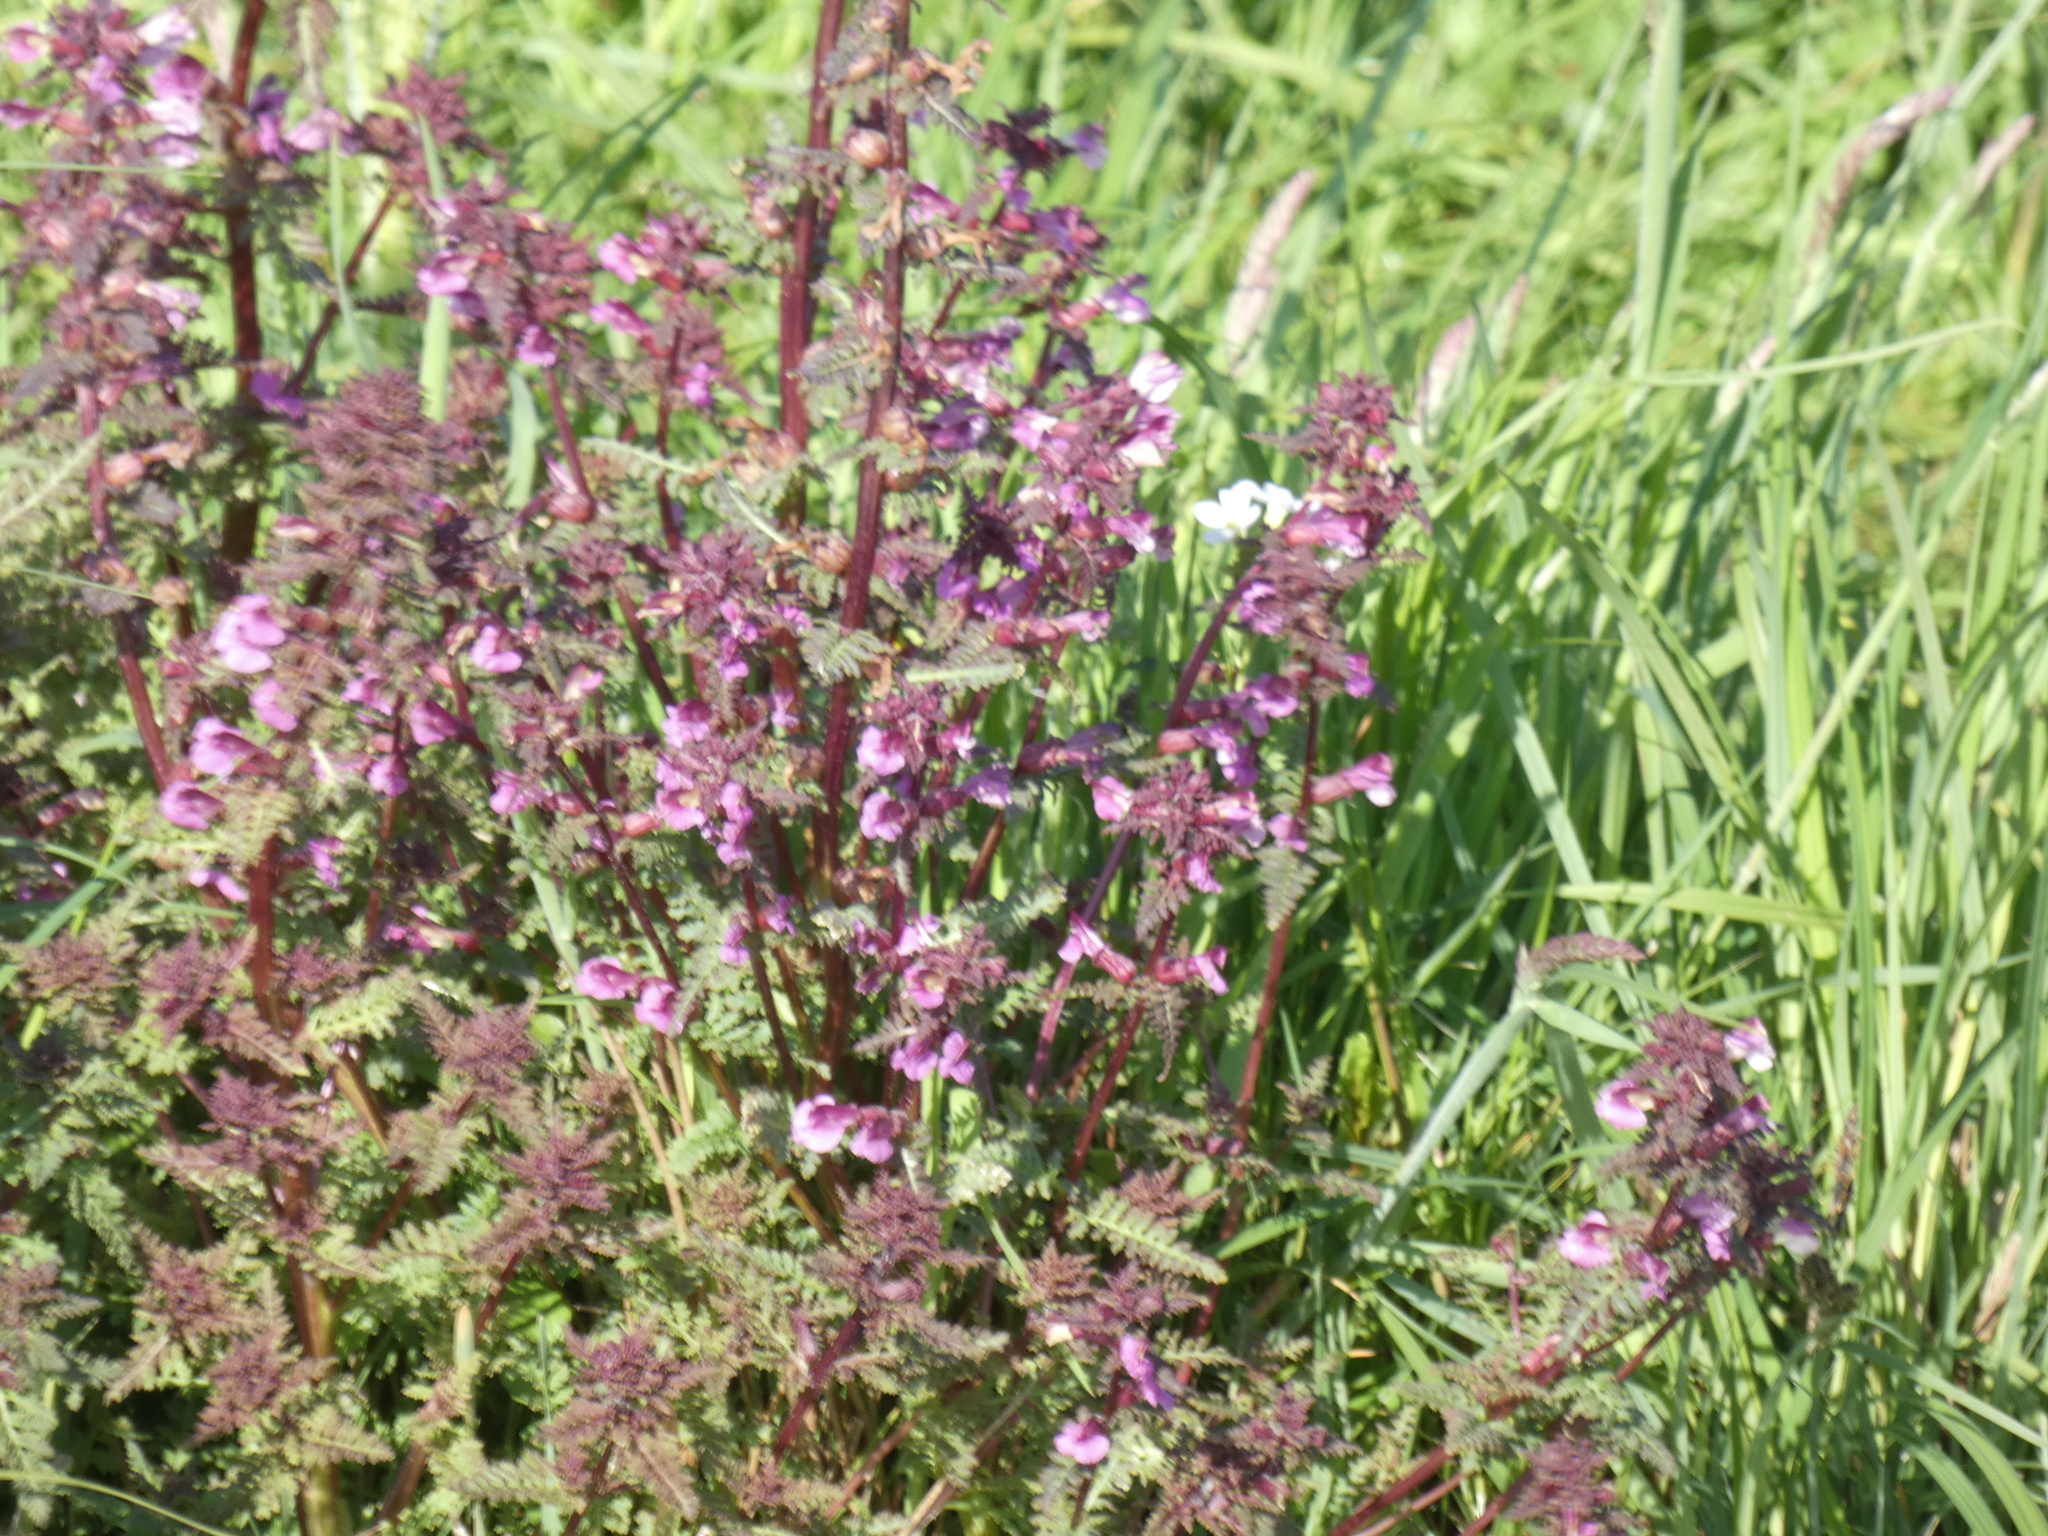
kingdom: Plantae
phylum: Tracheophyta
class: Magnoliopsida
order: Lamiales
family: Orobanchaceae
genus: Pedicularis
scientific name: Pedicularis palustris
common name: Marsh lousewort
